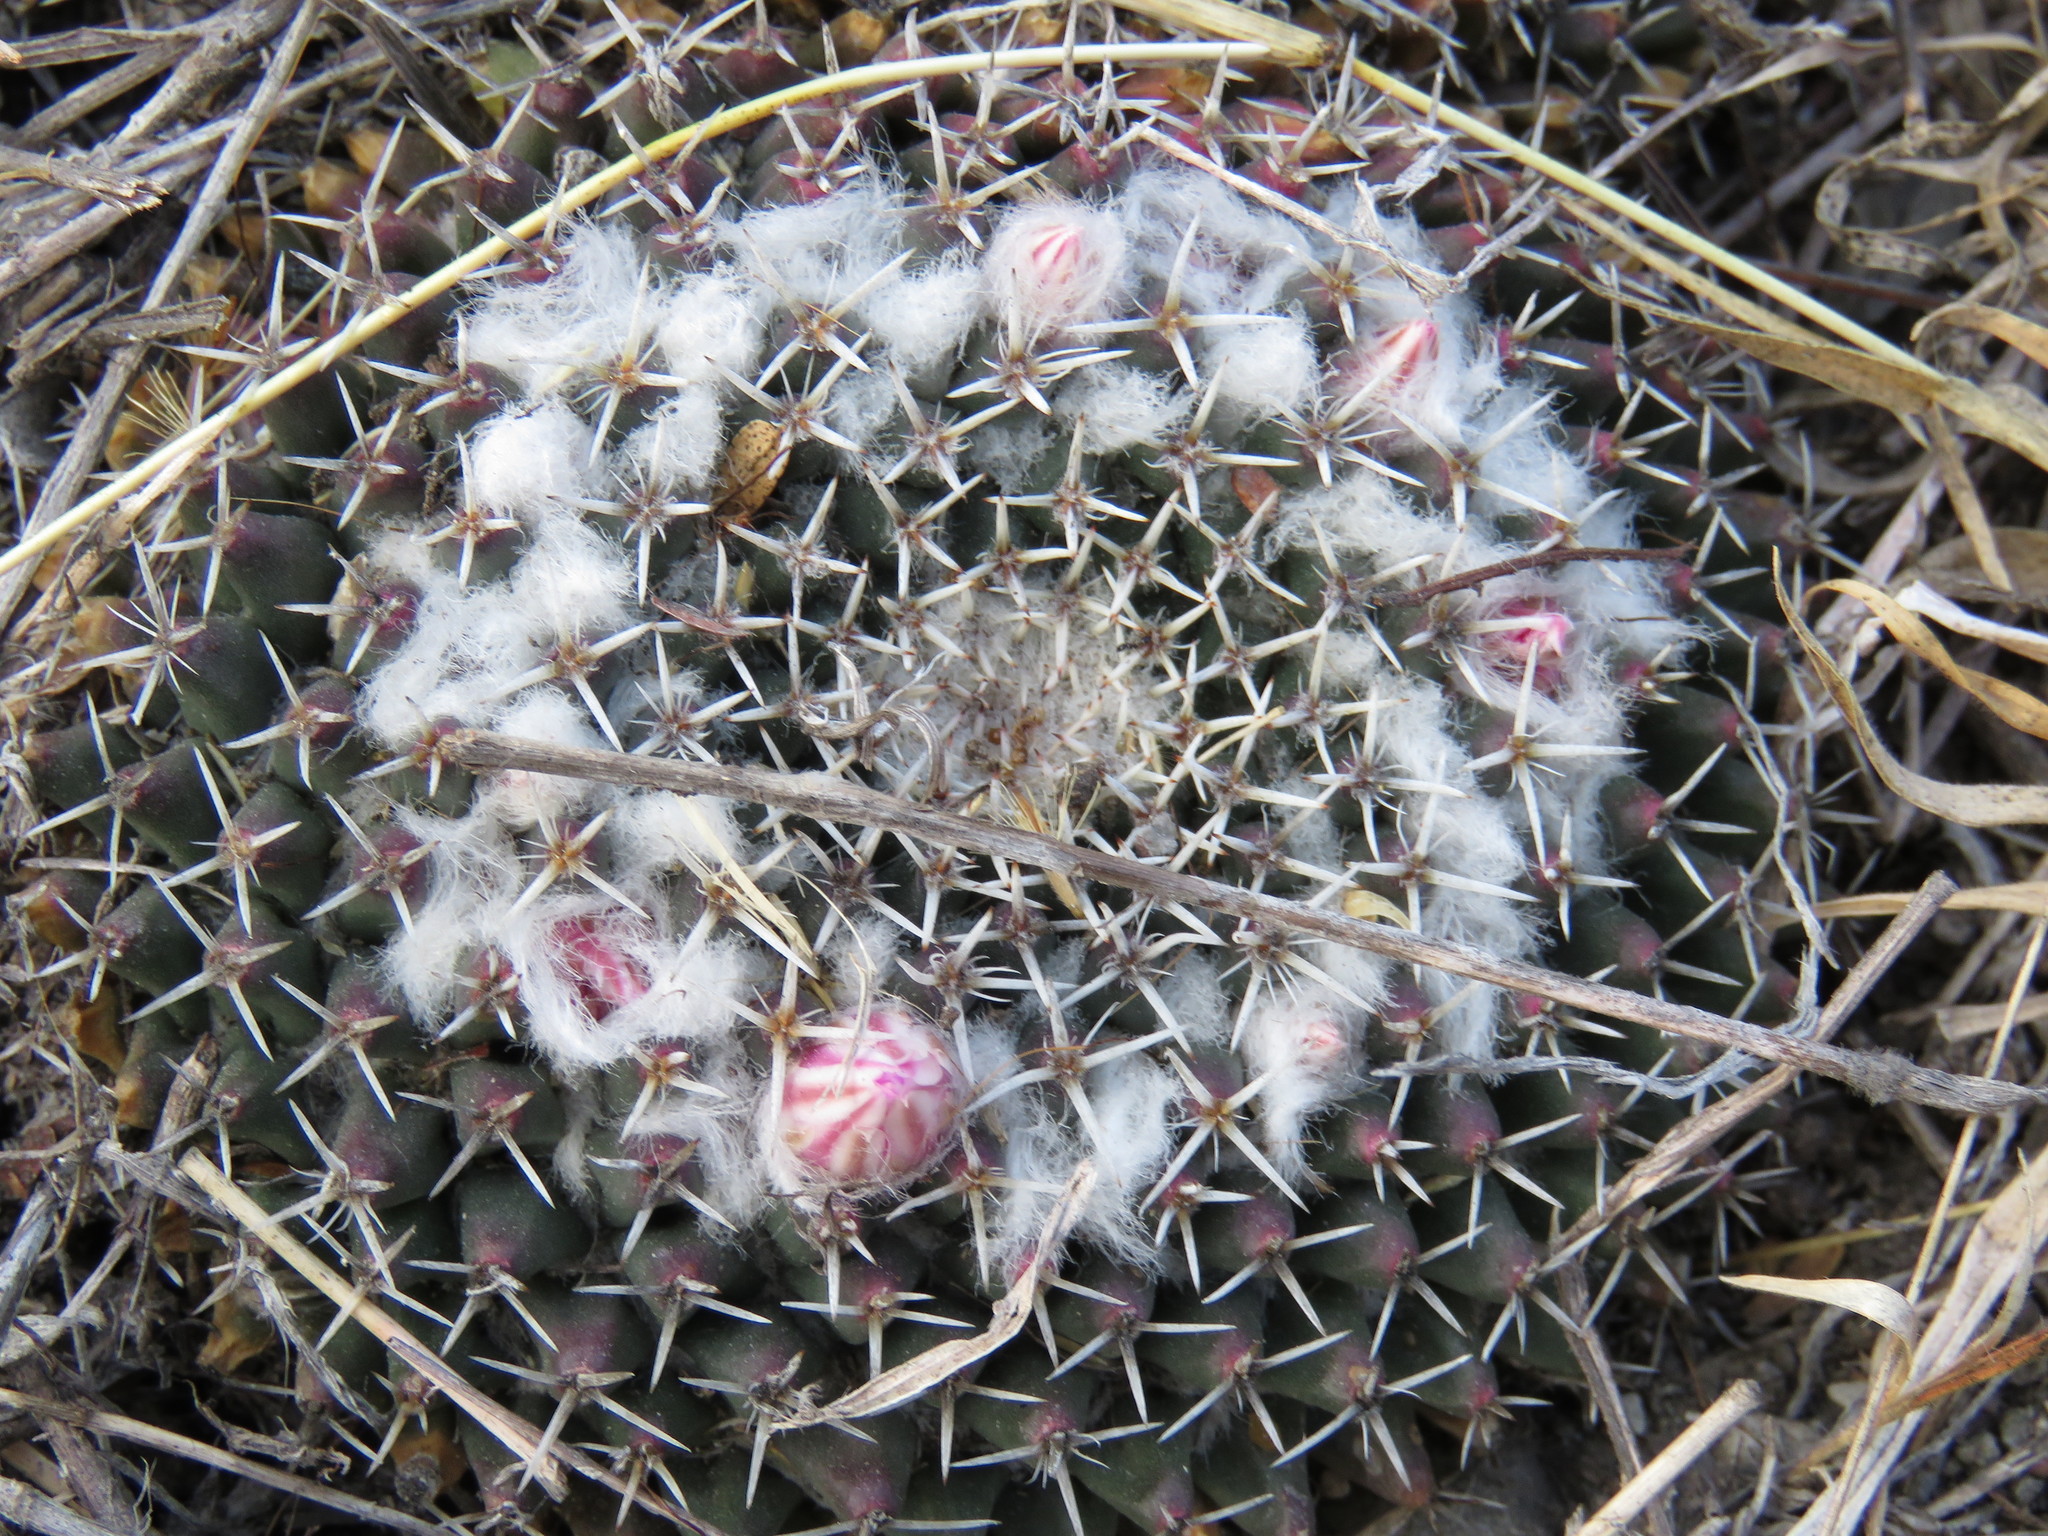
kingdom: Plantae
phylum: Tracheophyta
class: Magnoliopsida
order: Caryophyllales
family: Cactaceae
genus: Mammillaria
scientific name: Mammillaria
